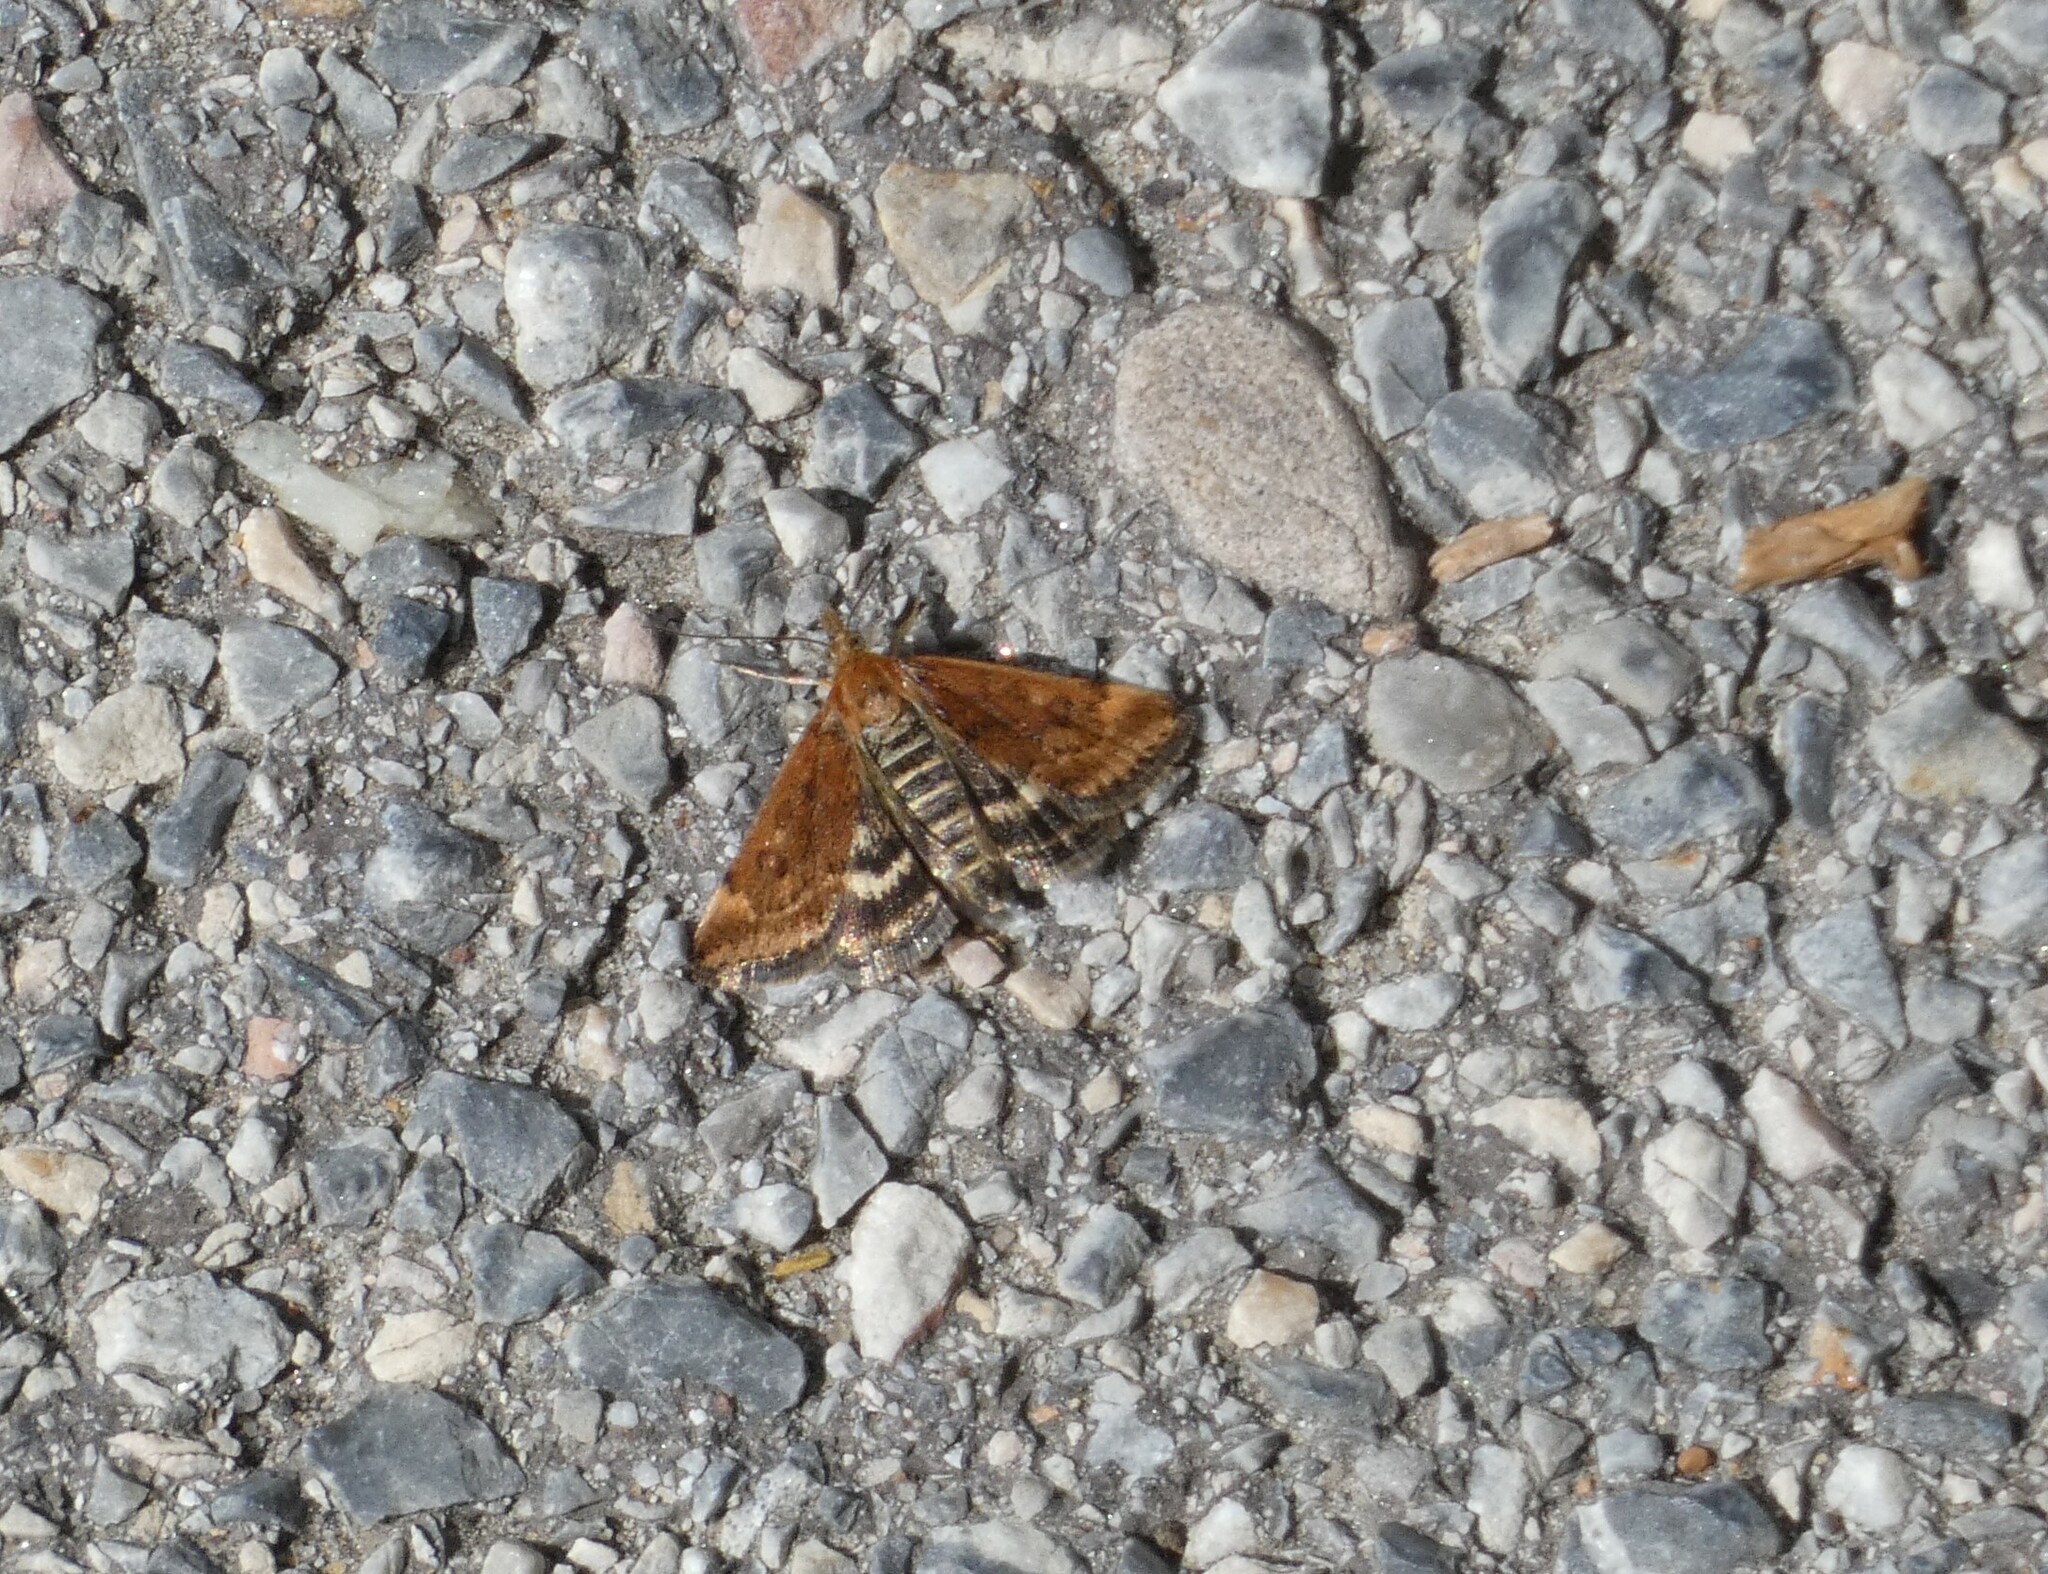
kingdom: Animalia
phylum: Arthropoda
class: Insecta
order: Lepidoptera
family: Crambidae
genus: Pyrausta
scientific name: Pyrausta despicata
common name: Straw-barred pearl
